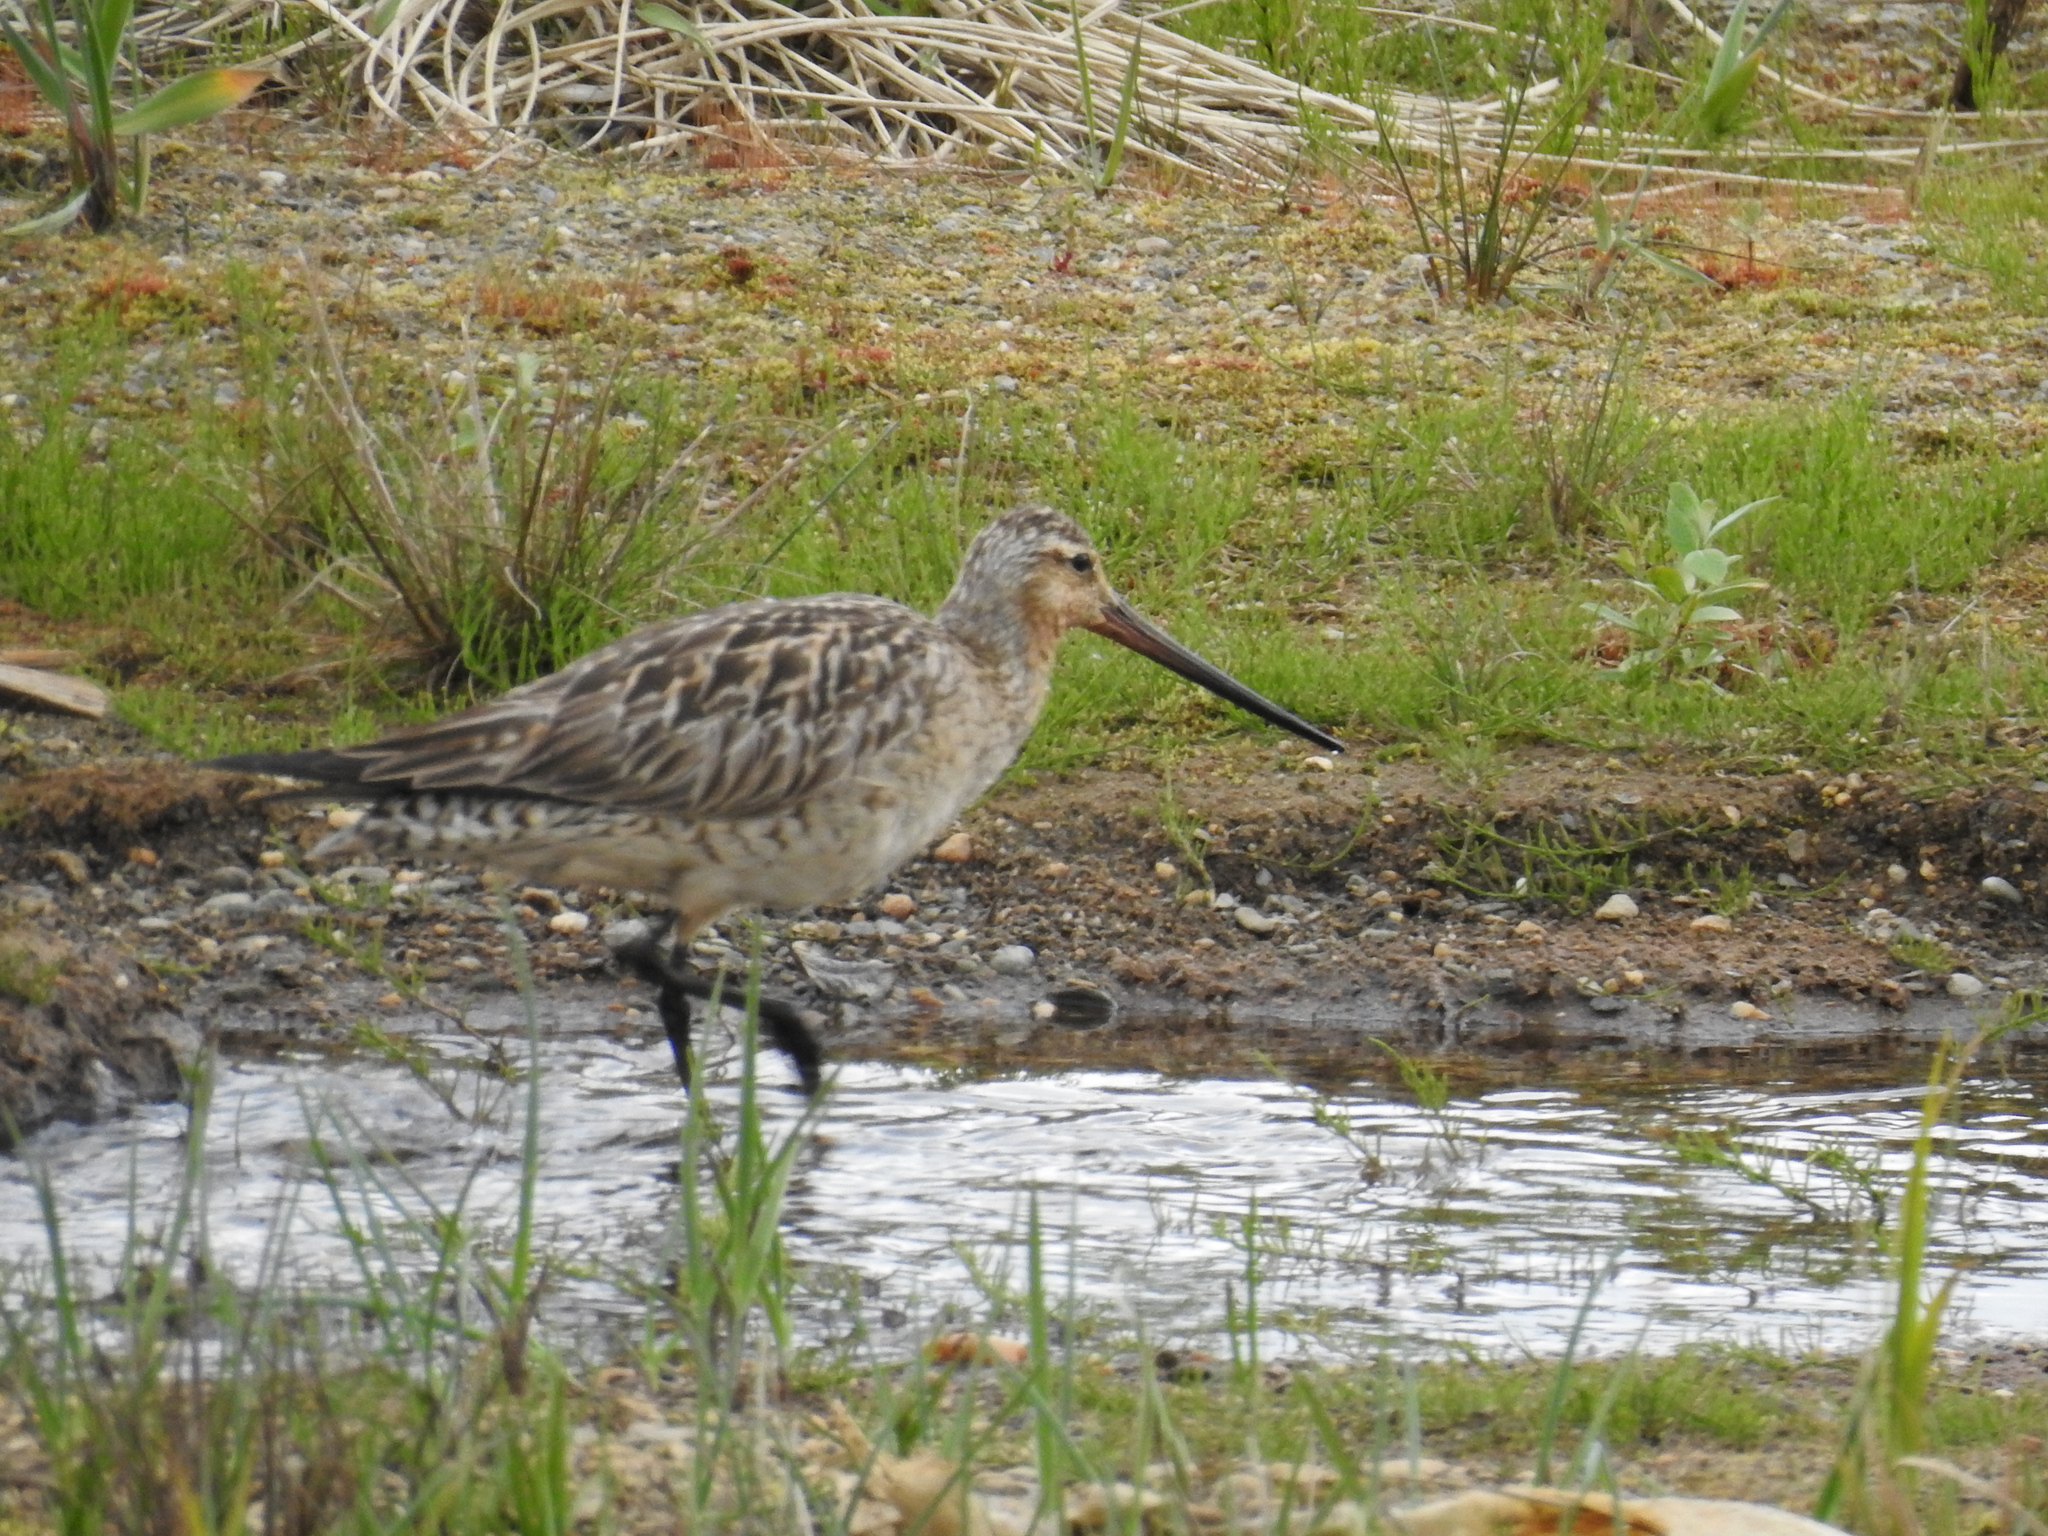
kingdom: Animalia
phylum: Chordata
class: Aves
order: Charadriiformes
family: Scolopacidae
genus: Limosa
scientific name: Limosa lapponica
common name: Bar-tailed godwit
